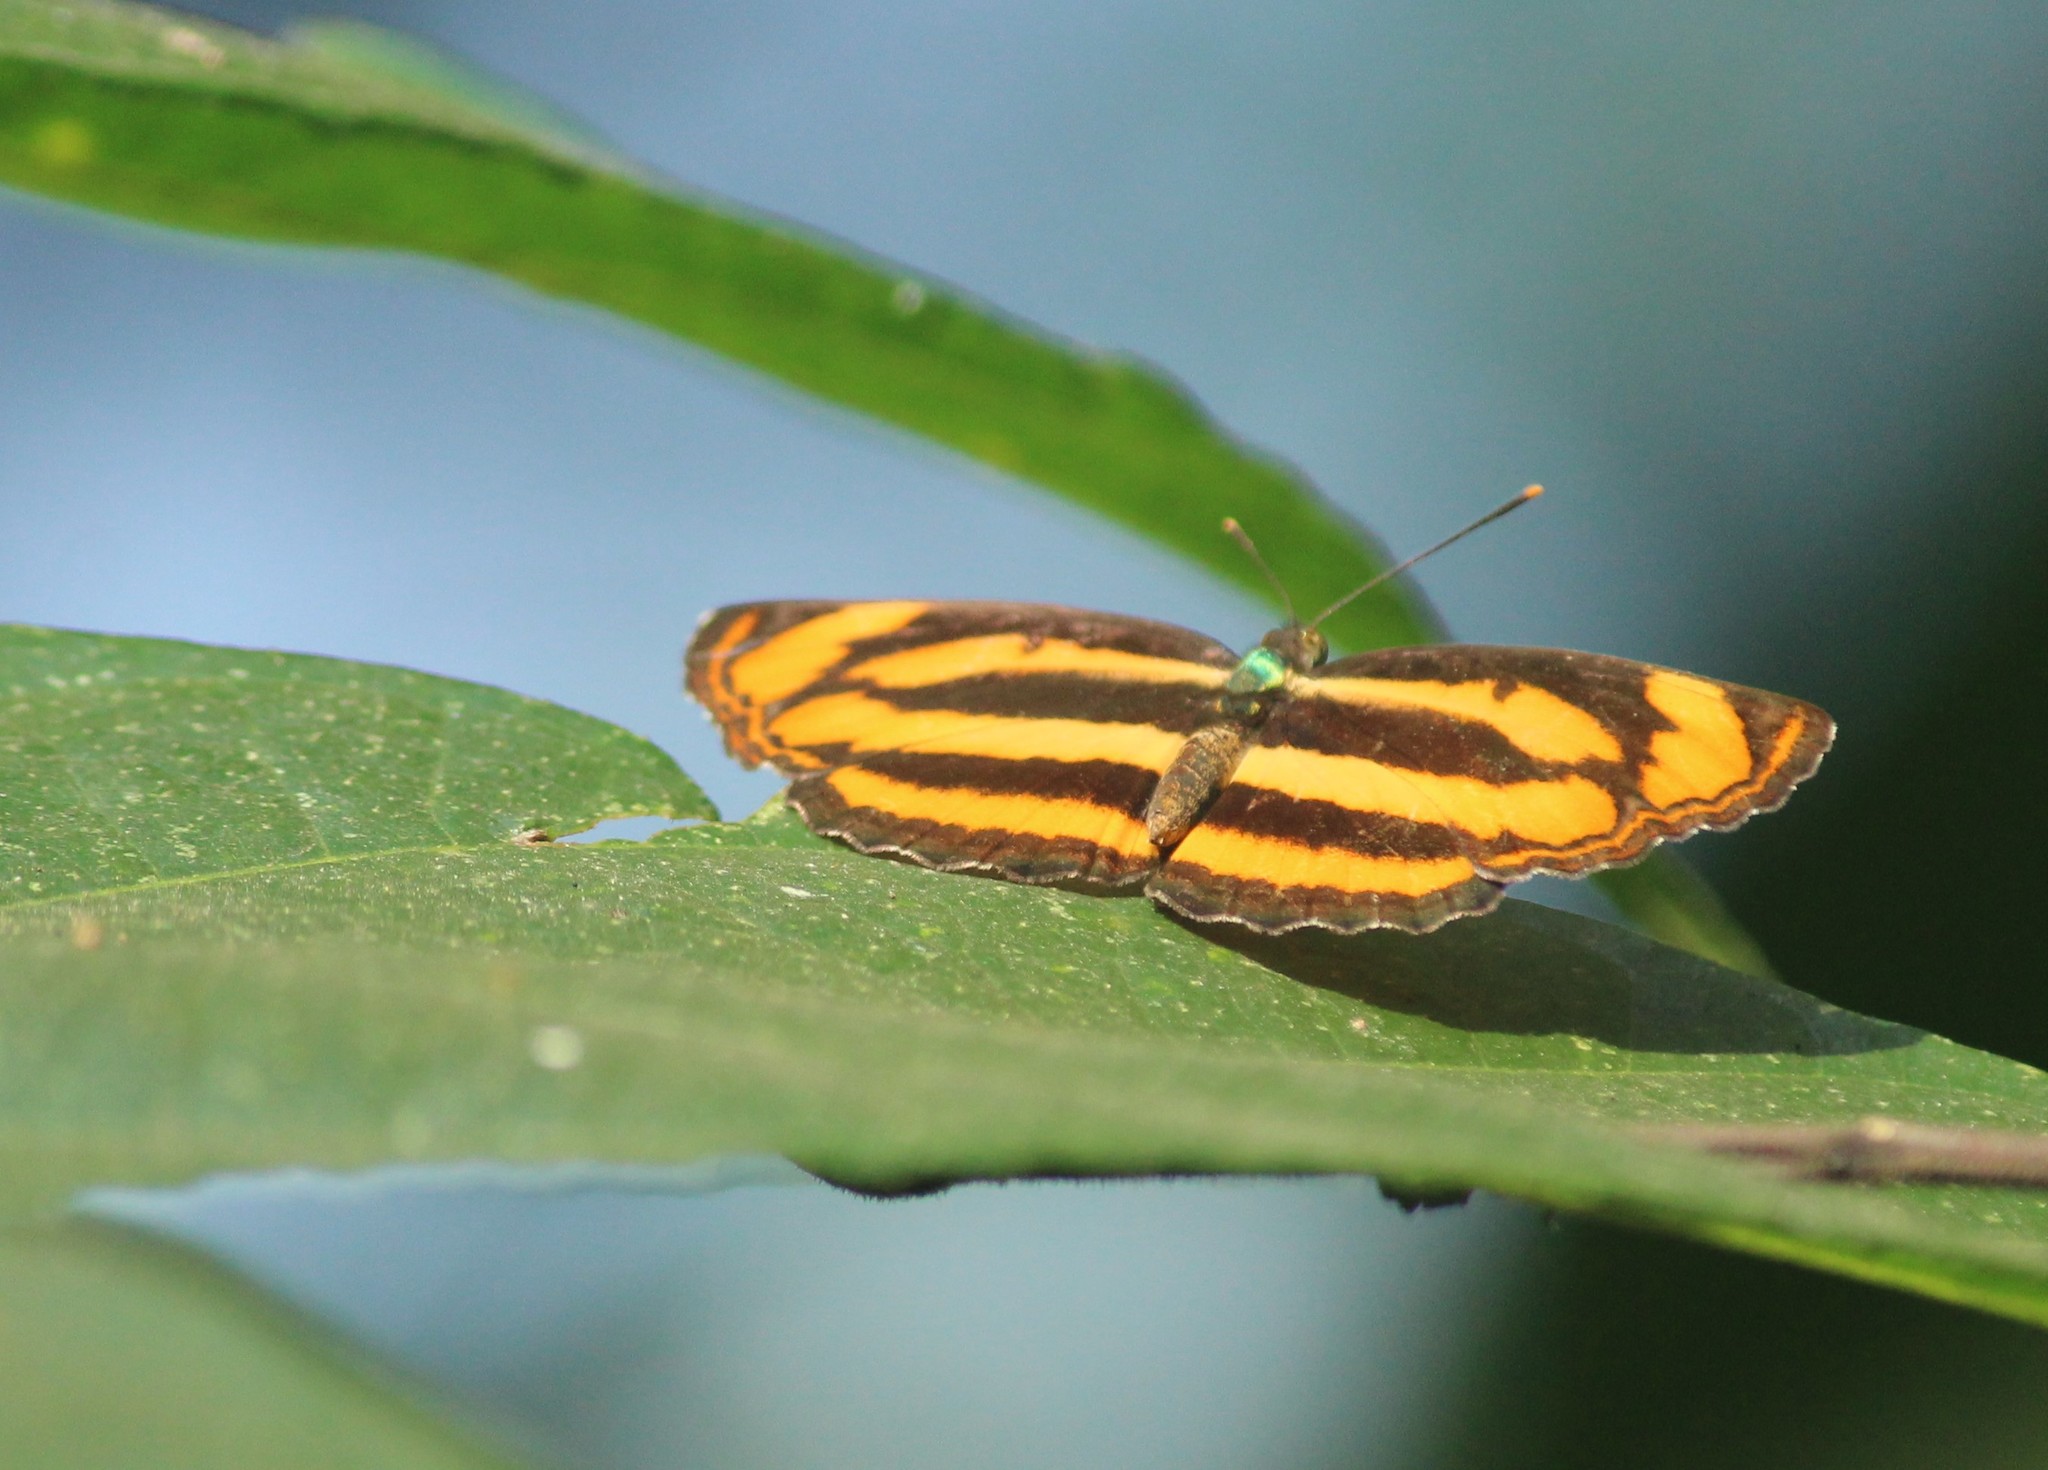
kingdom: Animalia
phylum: Arthropoda
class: Insecta
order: Lepidoptera
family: Nymphalidae
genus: Pantoporia
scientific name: Pantoporia hordonia
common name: Common lascar
